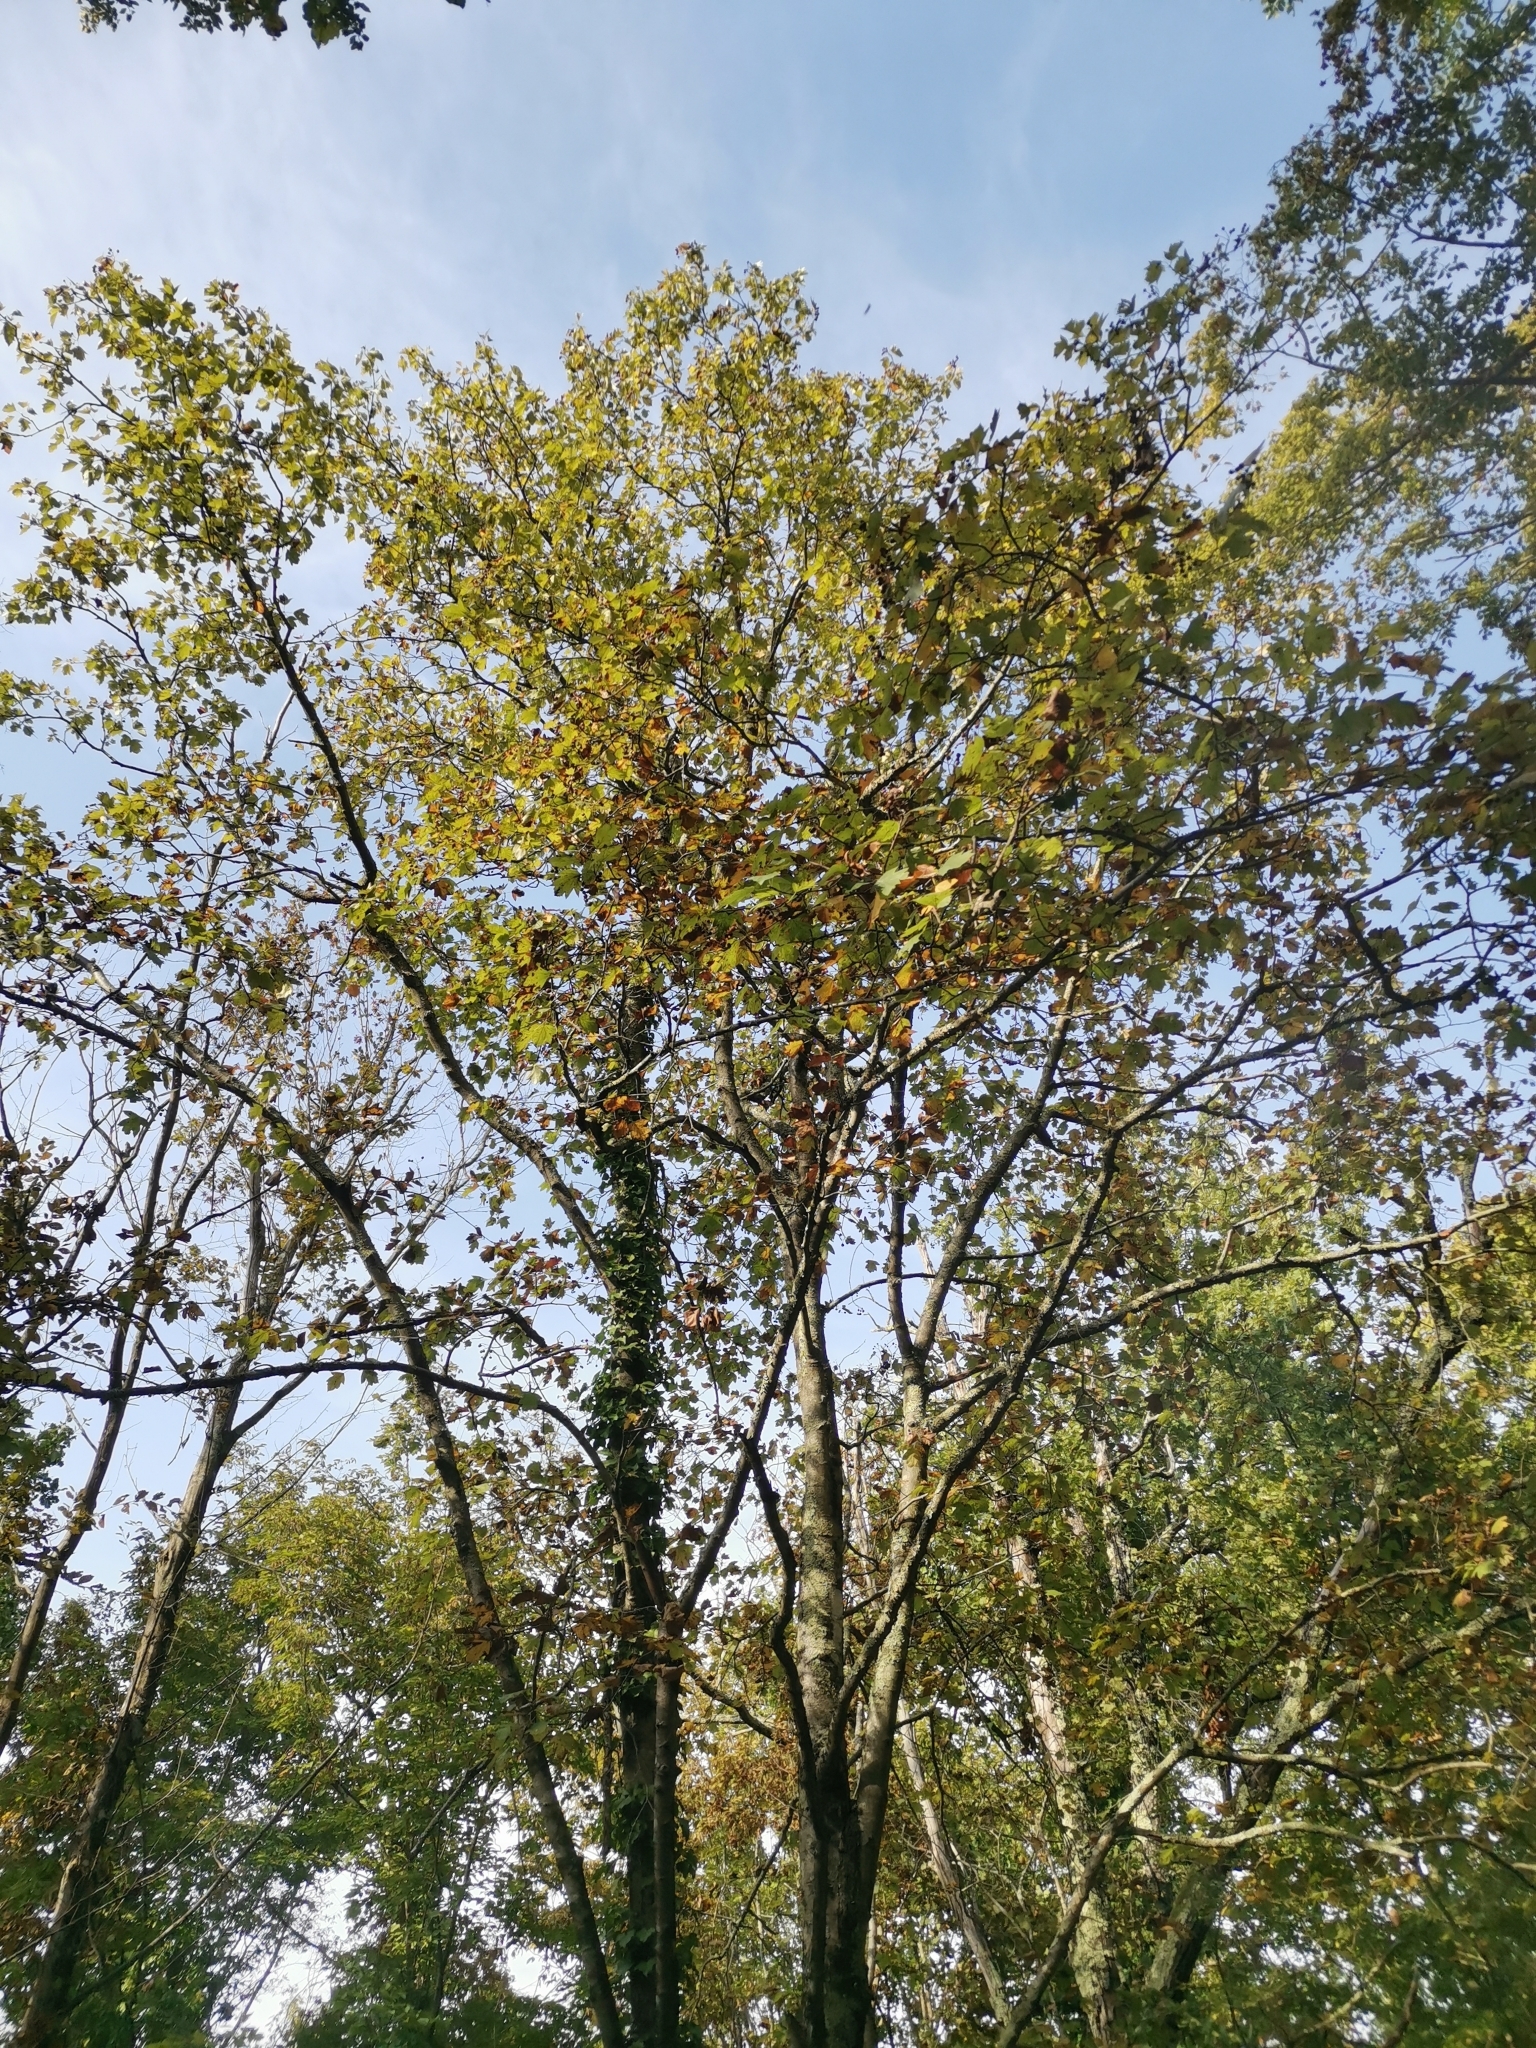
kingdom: Plantae
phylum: Tracheophyta
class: Magnoliopsida
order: Rosales
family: Rosaceae
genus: Torminalis
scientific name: Torminalis glaberrima
